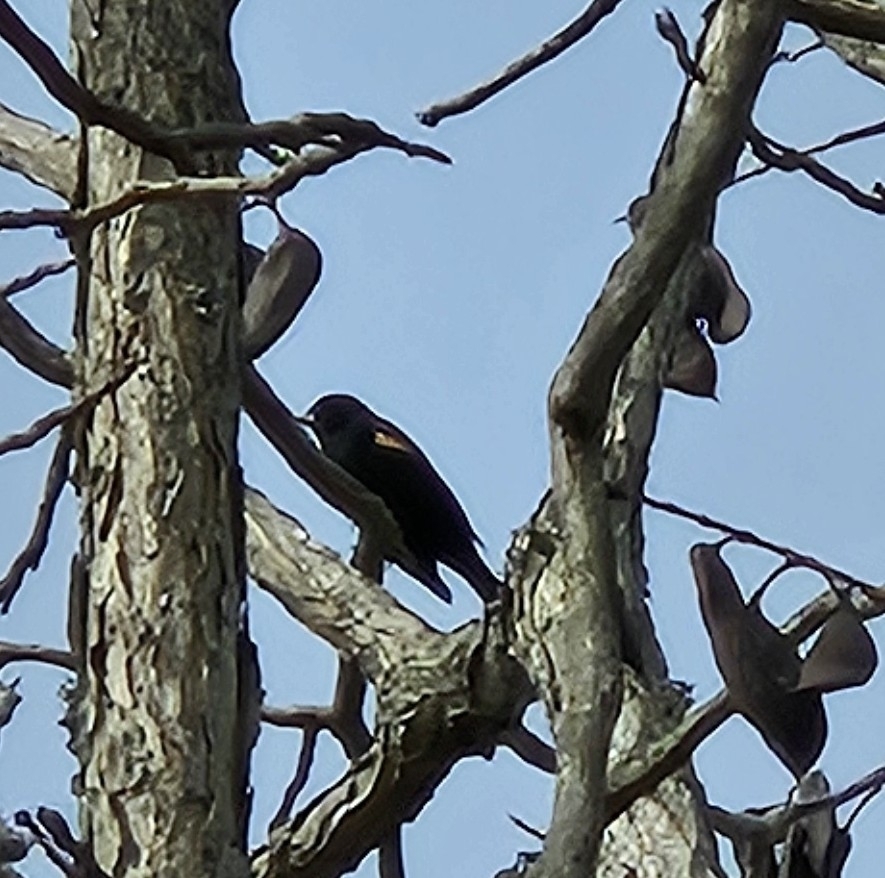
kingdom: Animalia
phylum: Chordata
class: Aves
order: Passeriformes
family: Icteridae
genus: Agelaius
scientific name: Agelaius phoeniceus
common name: Red-winged blackbird
